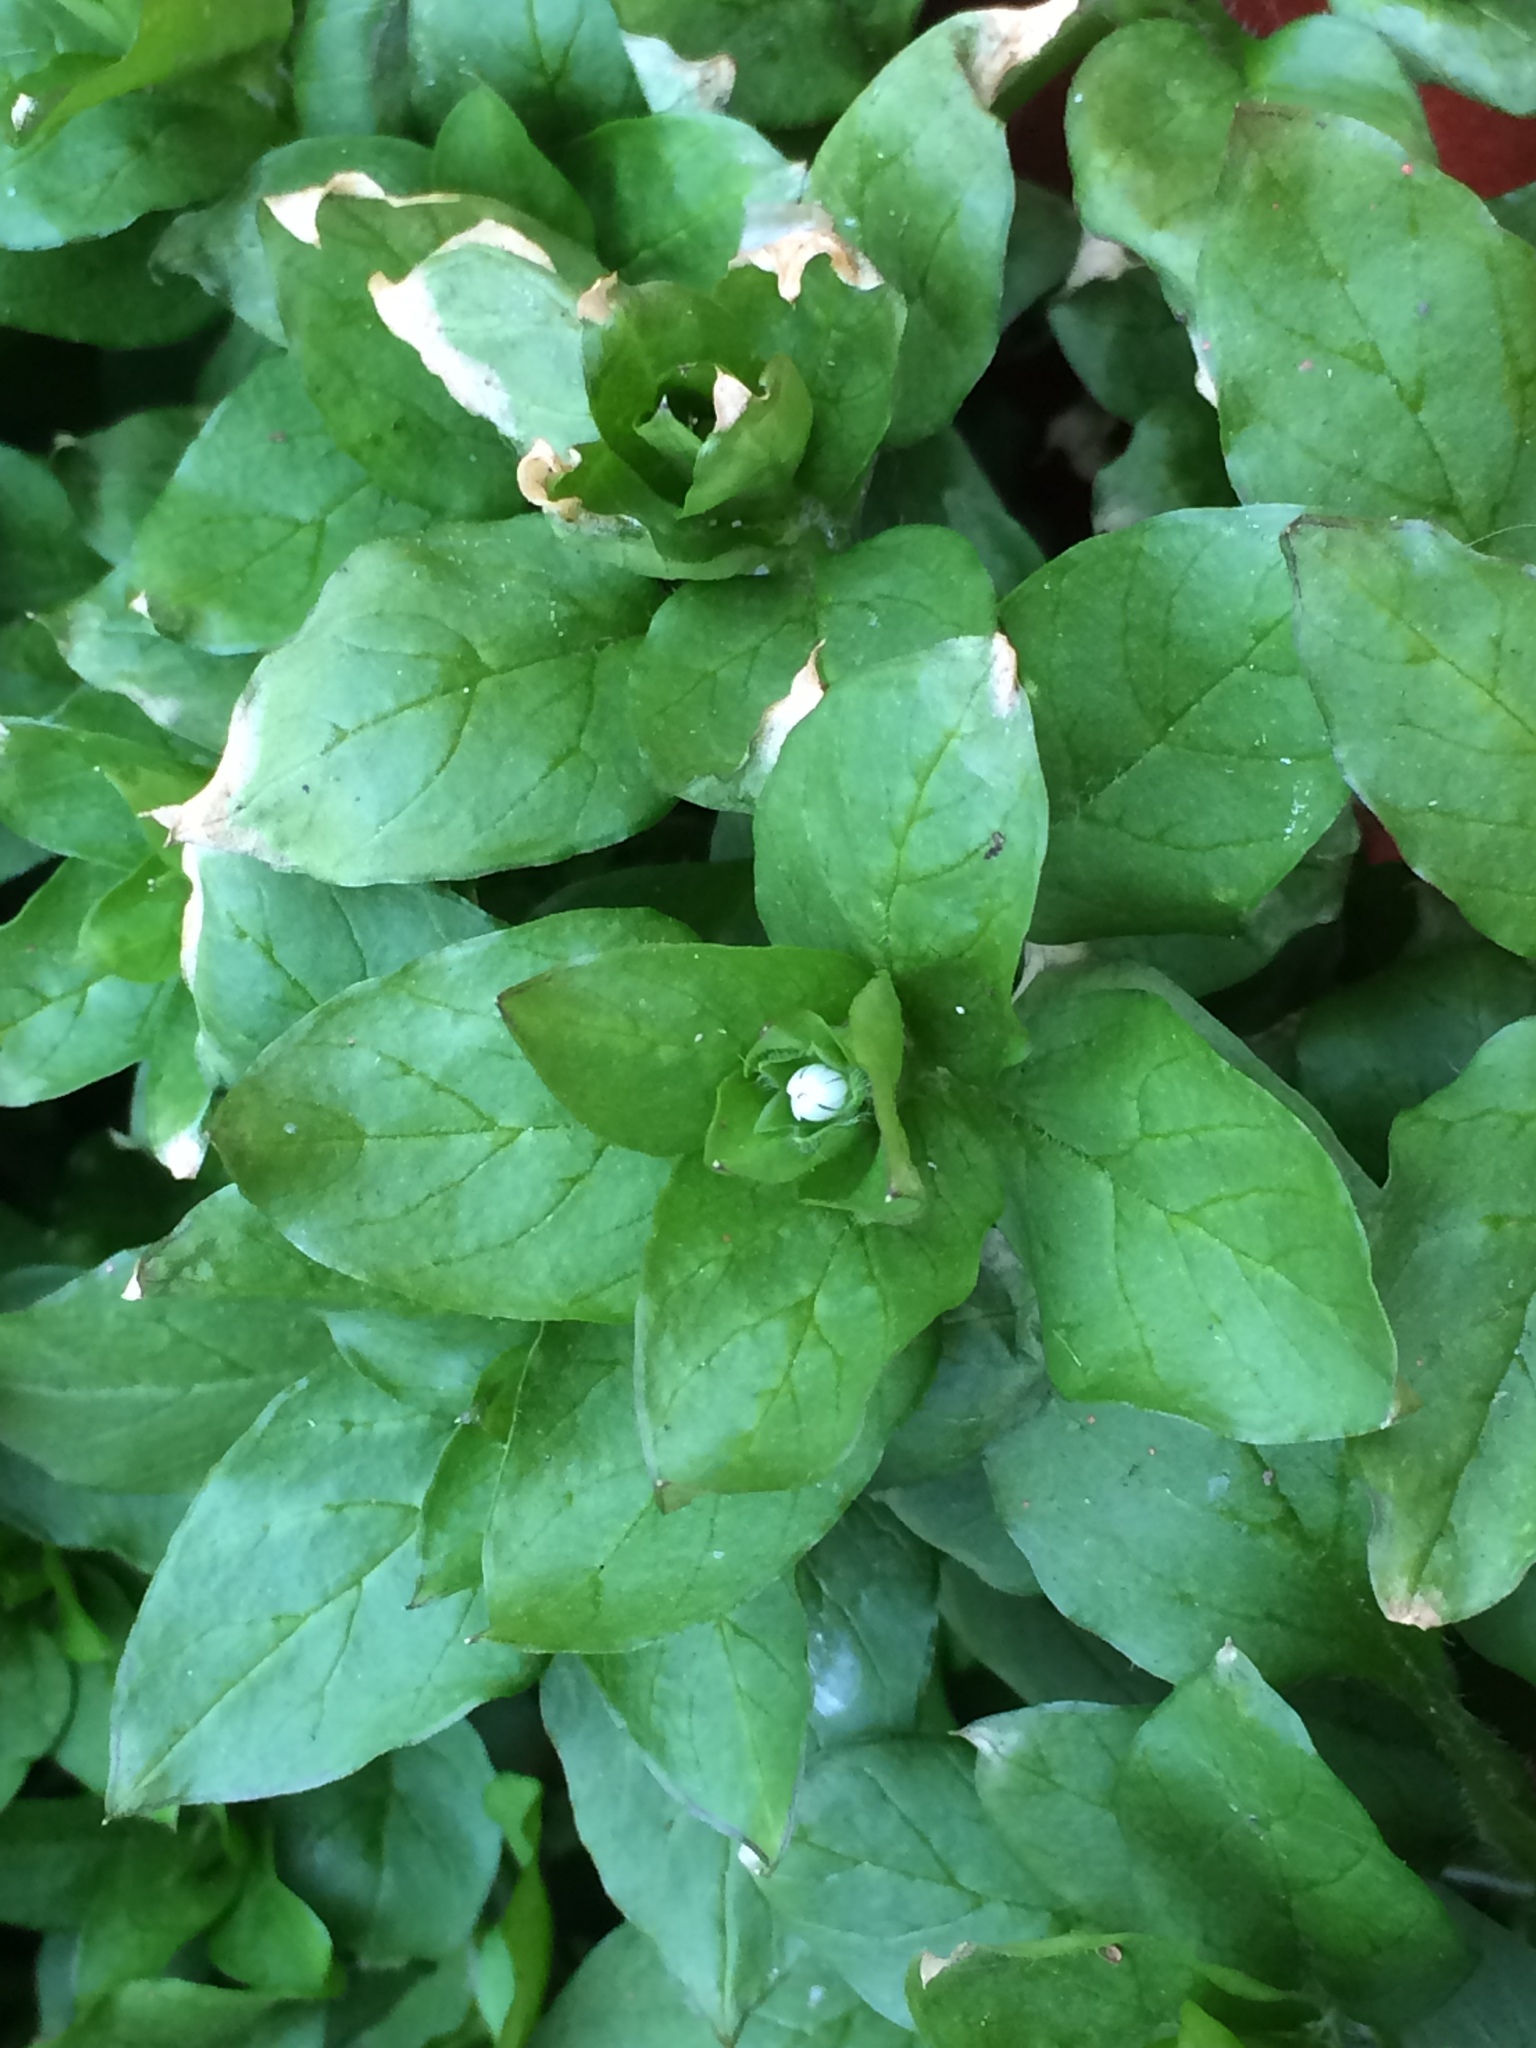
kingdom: Plantae
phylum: Tracheophyta
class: Magnoliopsida
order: Caryophyllales
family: Caryophyllaceae
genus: Stellaria
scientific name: Stellaria media
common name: Common chickweed
